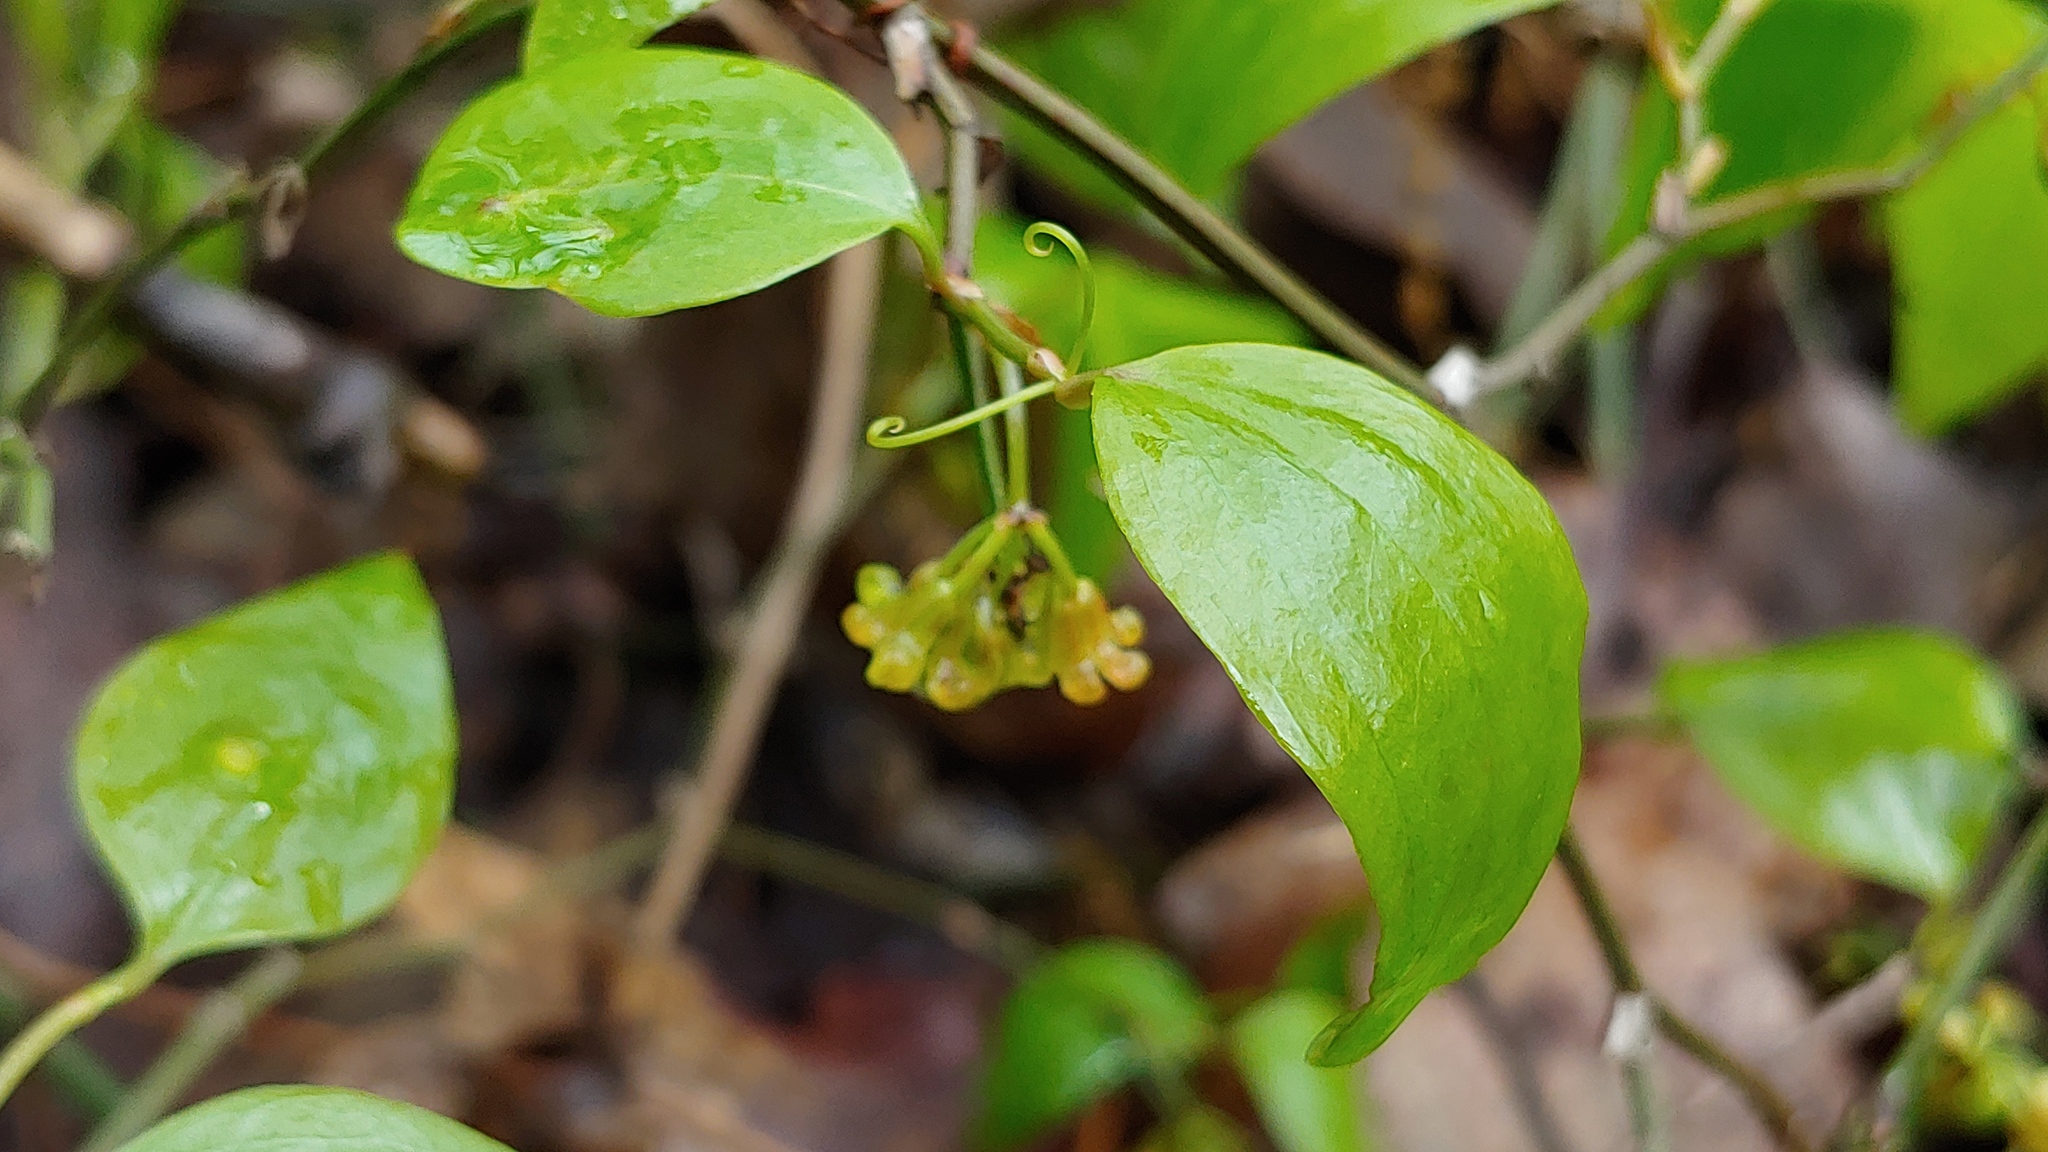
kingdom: Plantae
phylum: Tracheophyta
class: Liliopsida
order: Liliales
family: Smilacaceae
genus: Smilax
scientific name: Smilax rotundifolia
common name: Bullbriar
